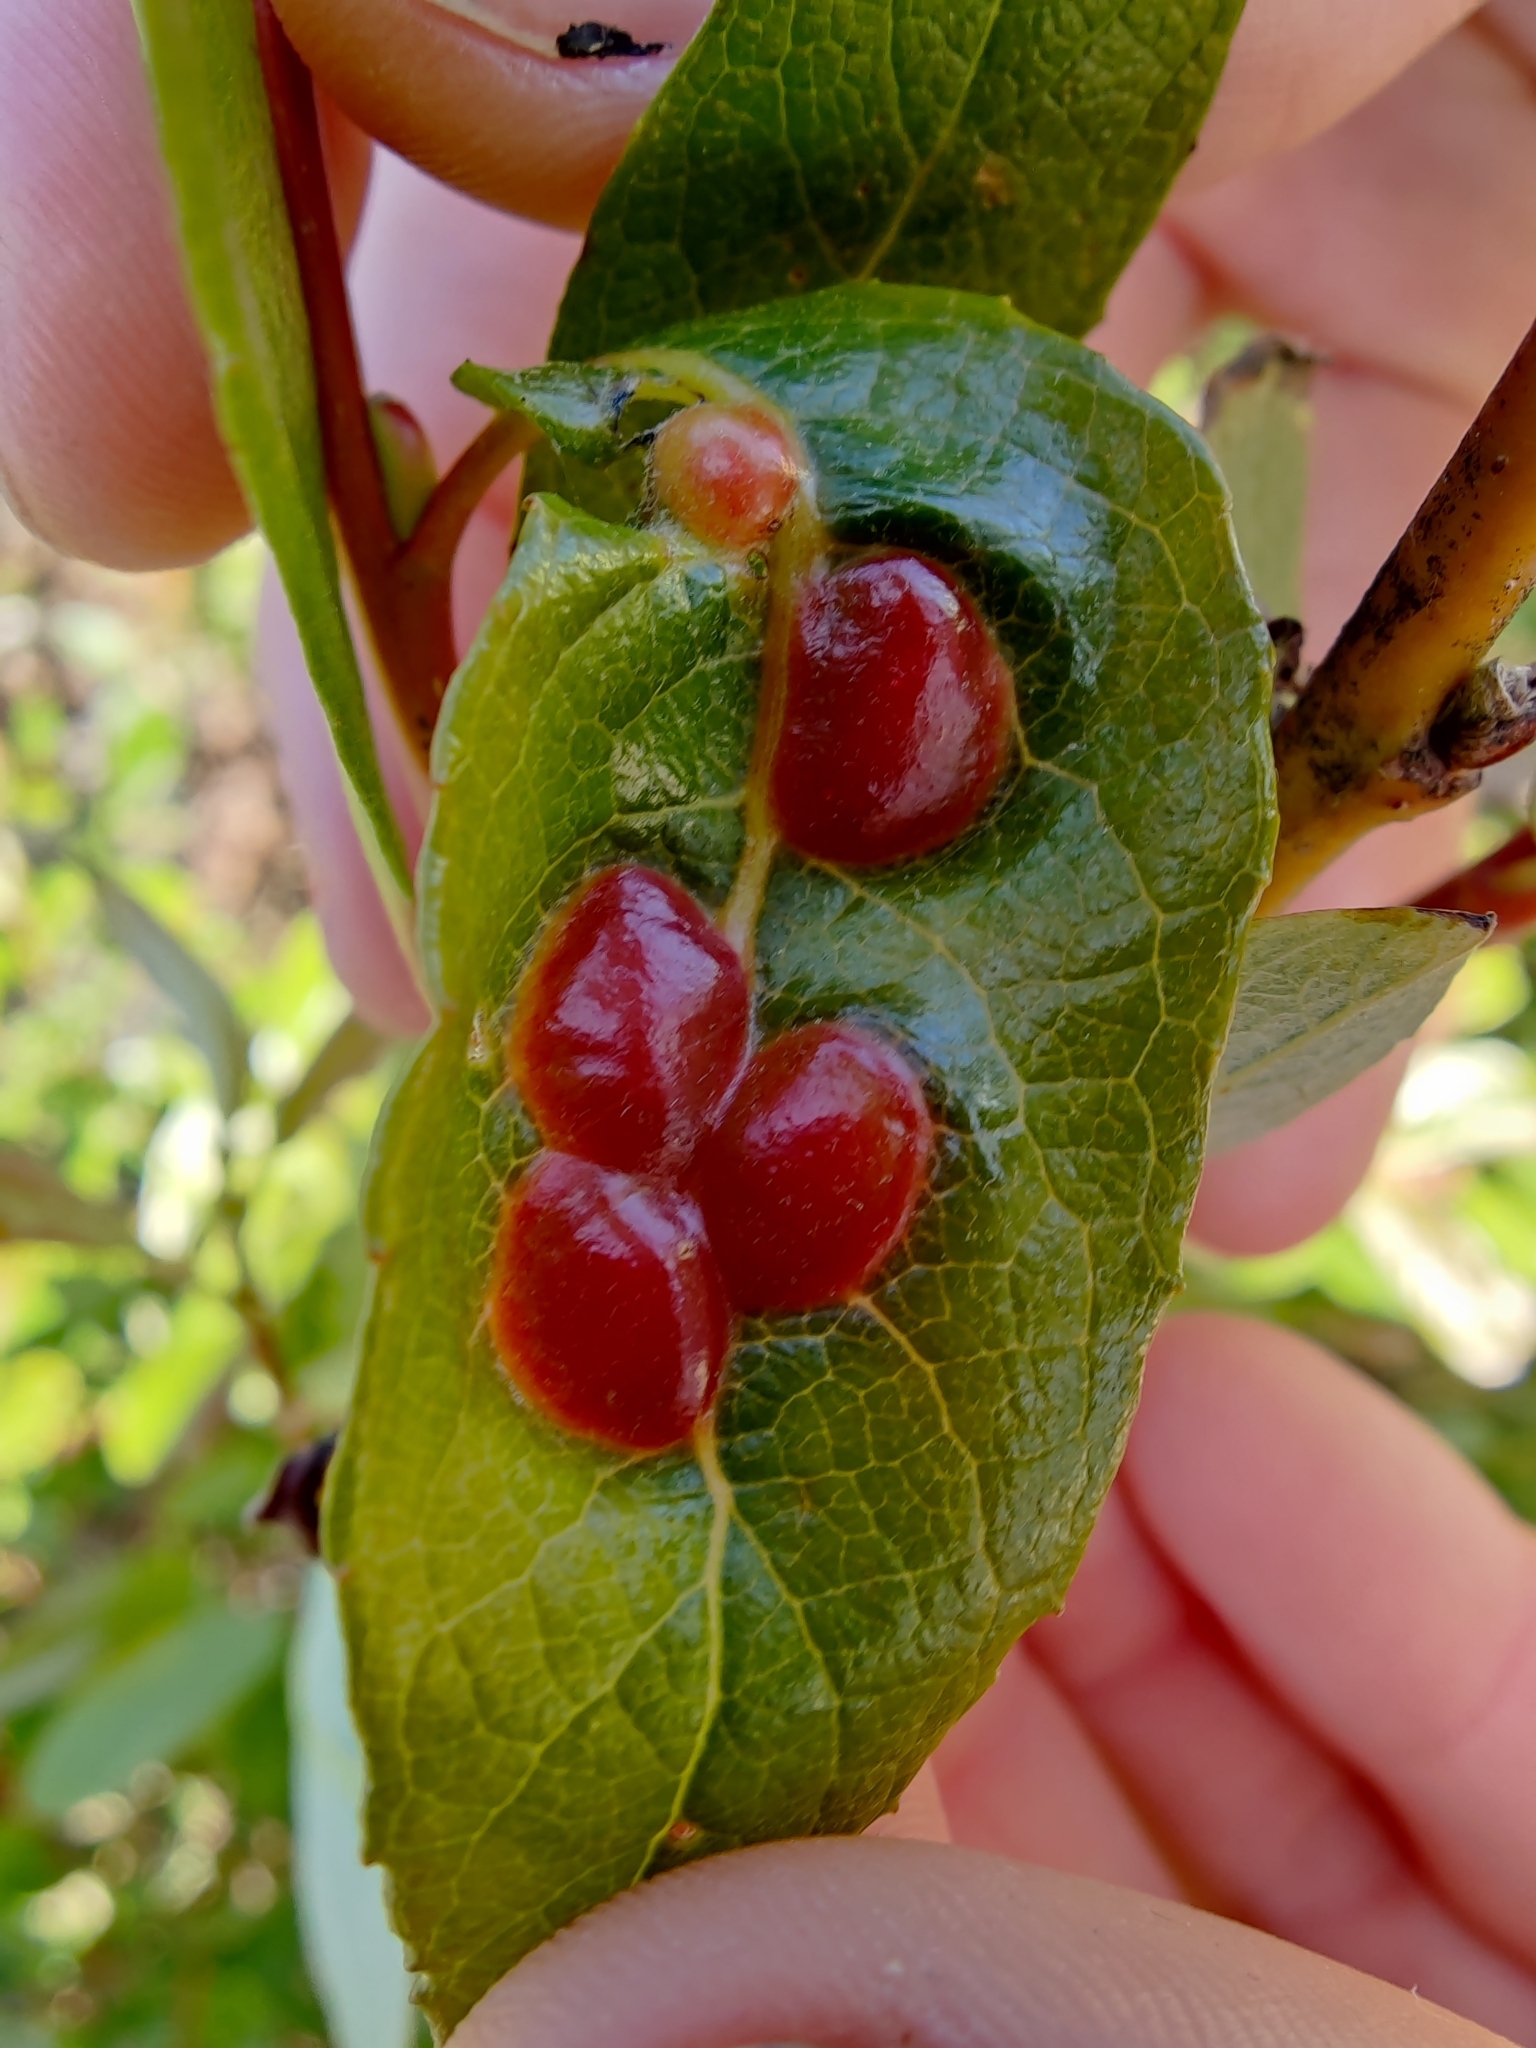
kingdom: Animalia
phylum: Arthropoda
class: Insecta
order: Hymenoptera
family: Tenthredinidae
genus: Euura
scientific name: Euura
